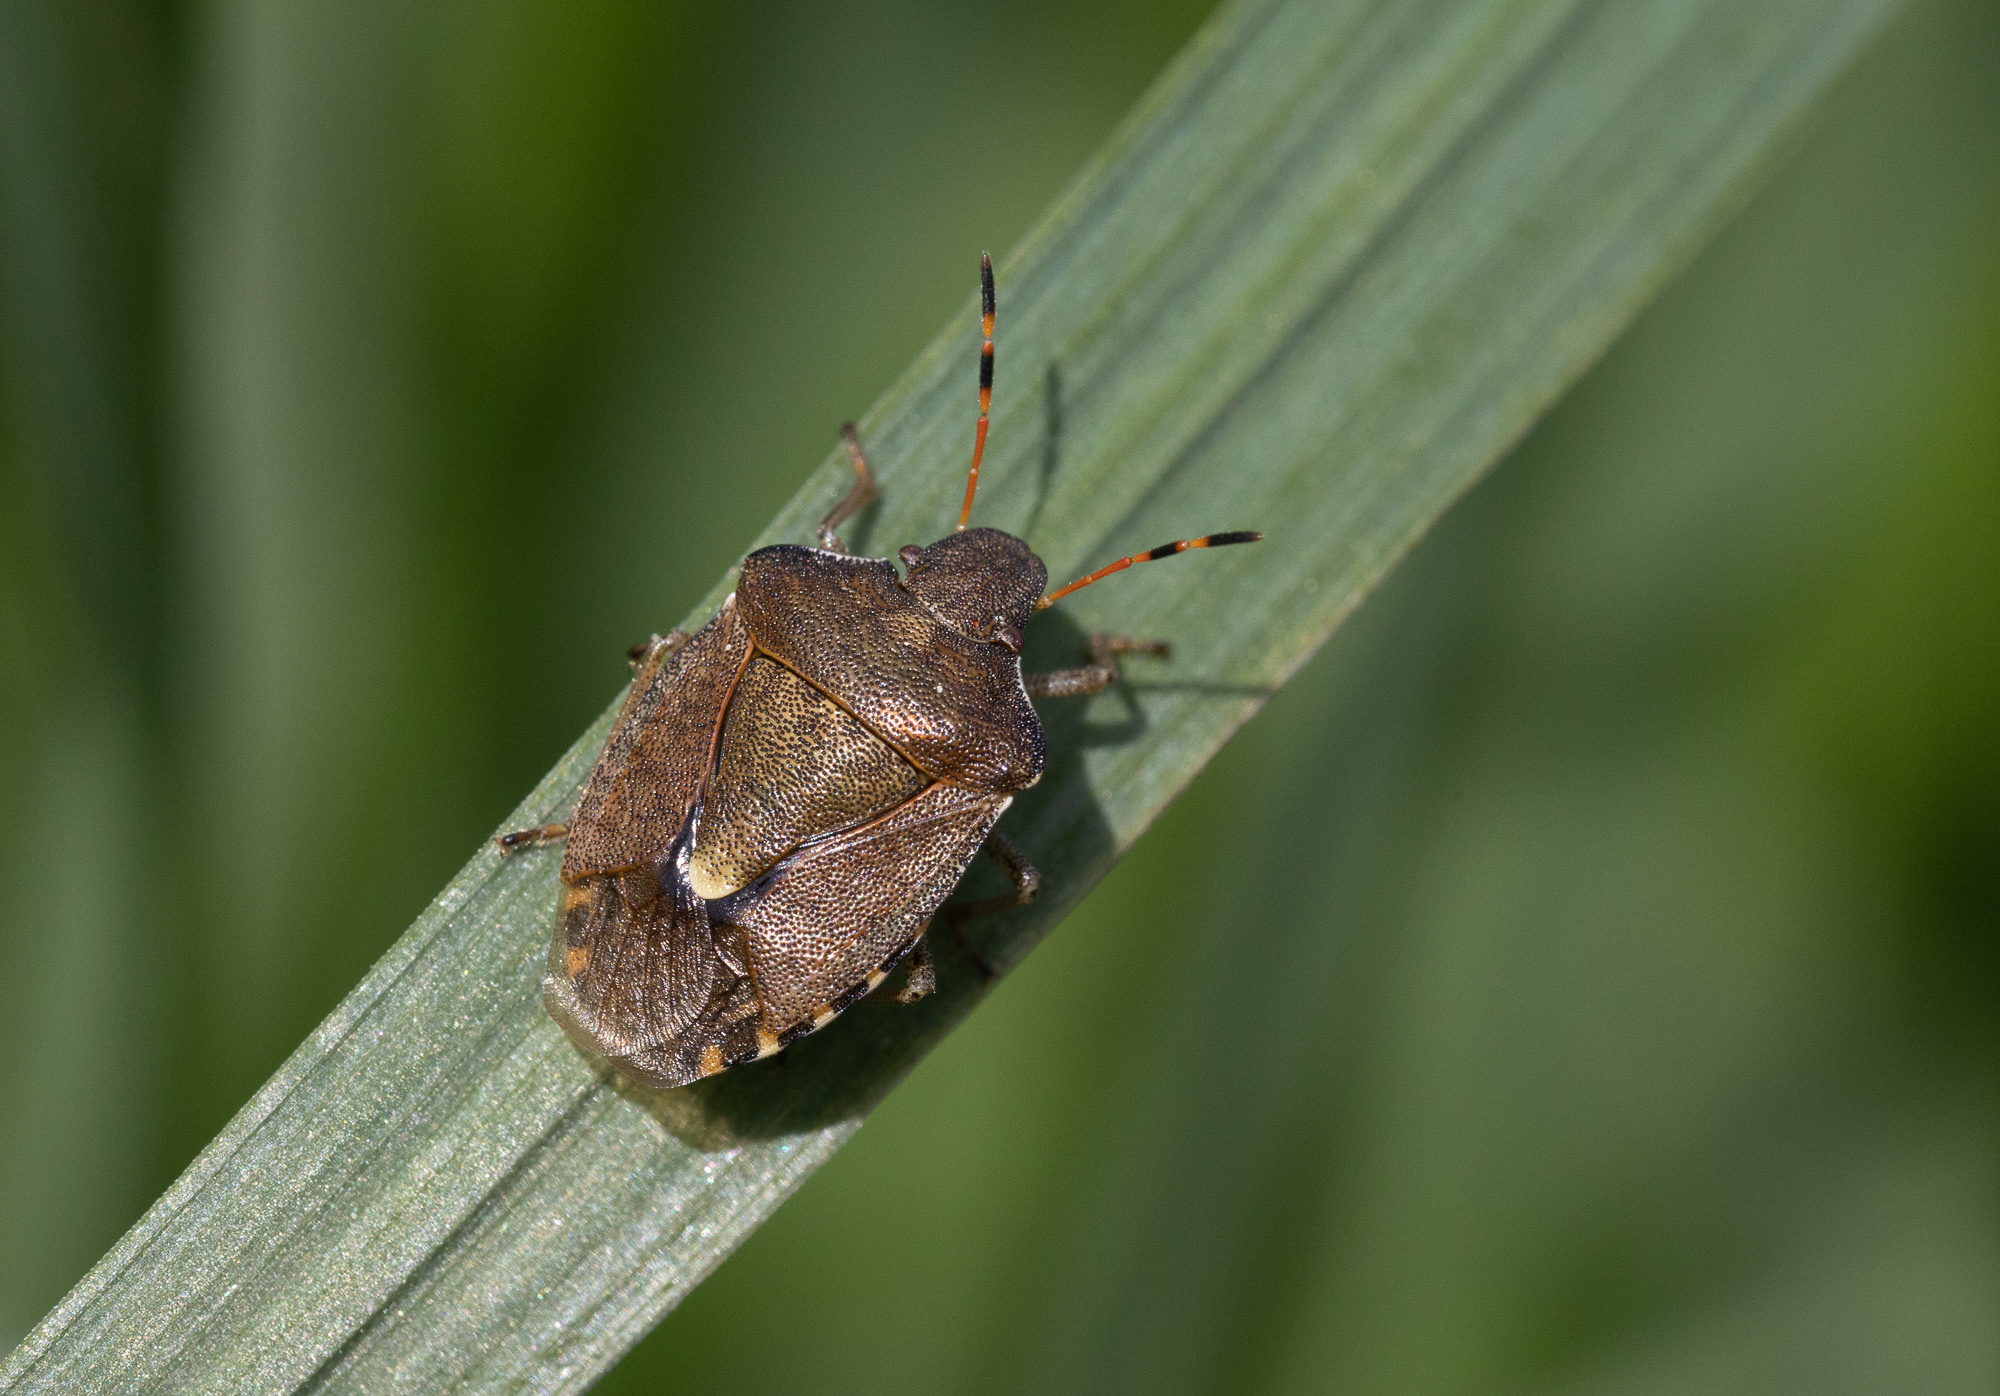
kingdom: Animalia
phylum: Arthropoda
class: Insecta
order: Hemiptera
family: Pentatomidae
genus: Holcostethus
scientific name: Holcostethus strictus
